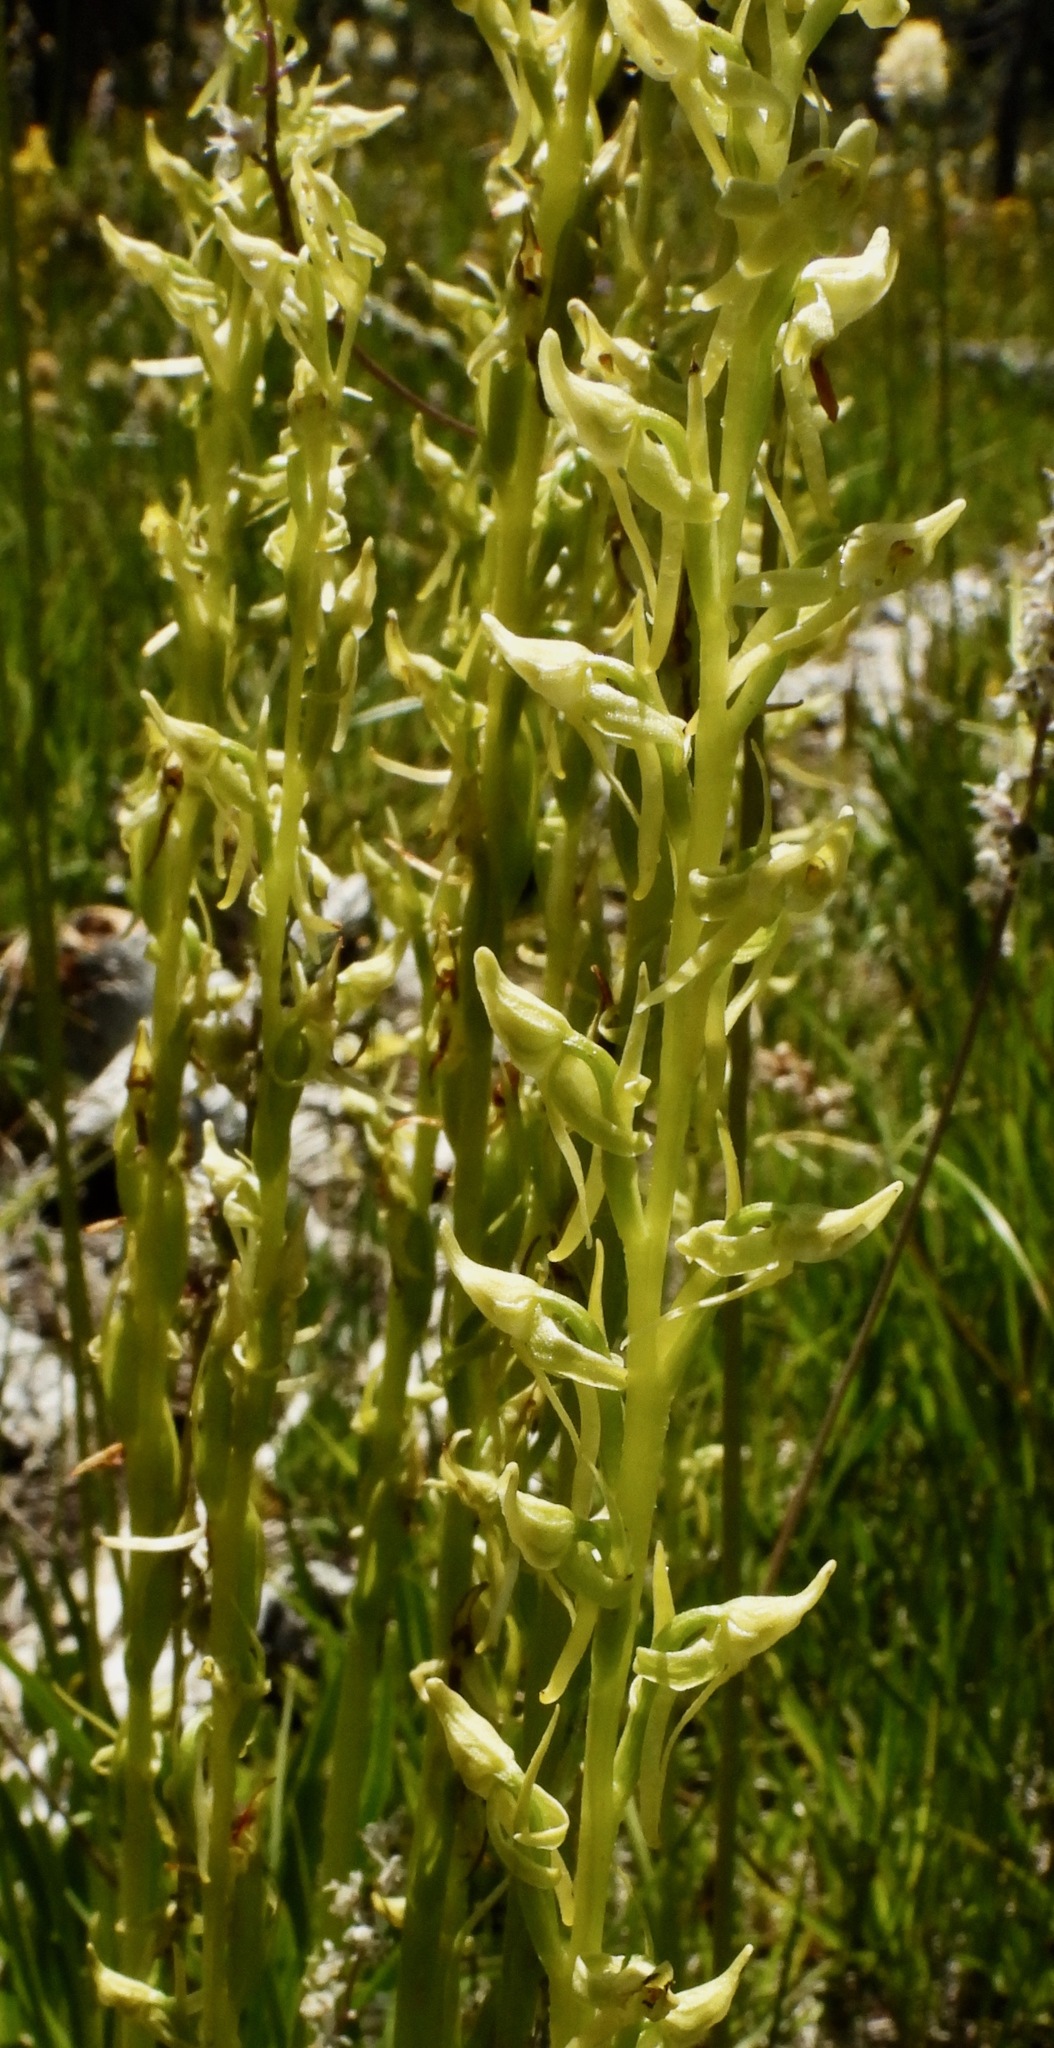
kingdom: Plantae
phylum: Tracheophyta
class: Liliopsida
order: Asparagales
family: Orchidaceae
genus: Platanthera
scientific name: Platanthera sparsiflora
